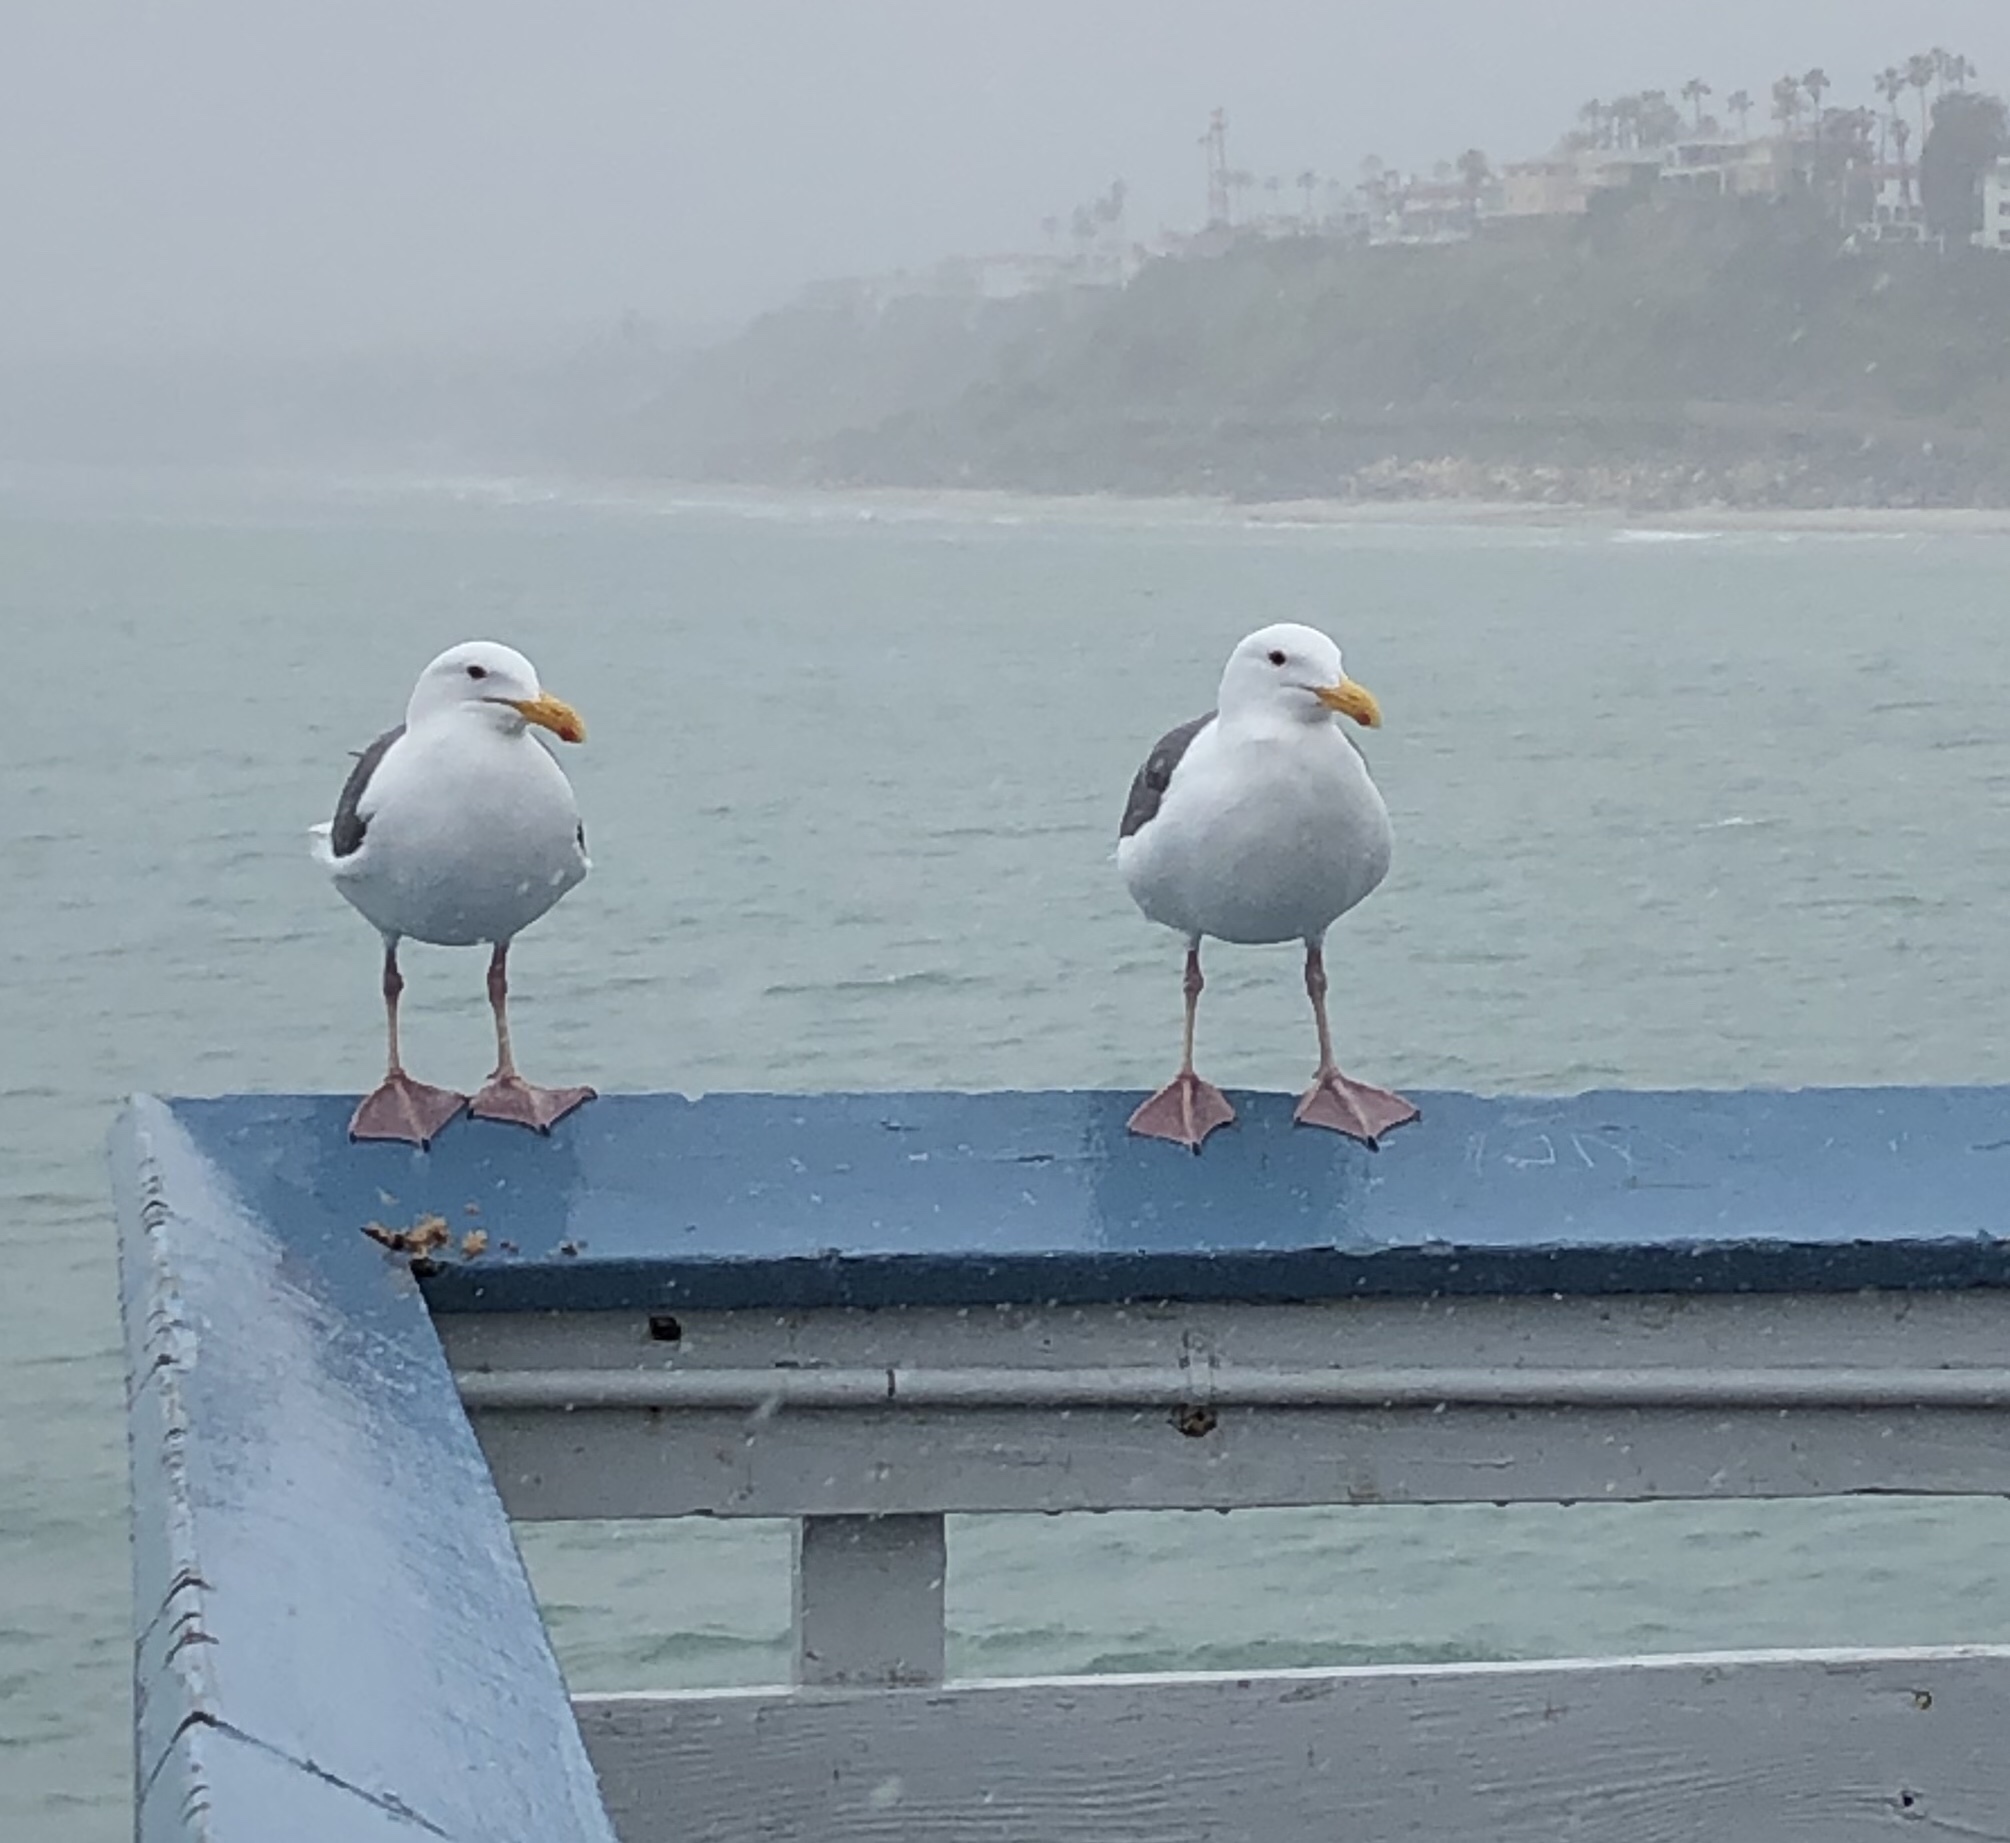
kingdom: Animalia
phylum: Chordata
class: Aves
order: Charadriiformes
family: Laridae
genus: Larus
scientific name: Larus occidentalis
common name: Western gull
